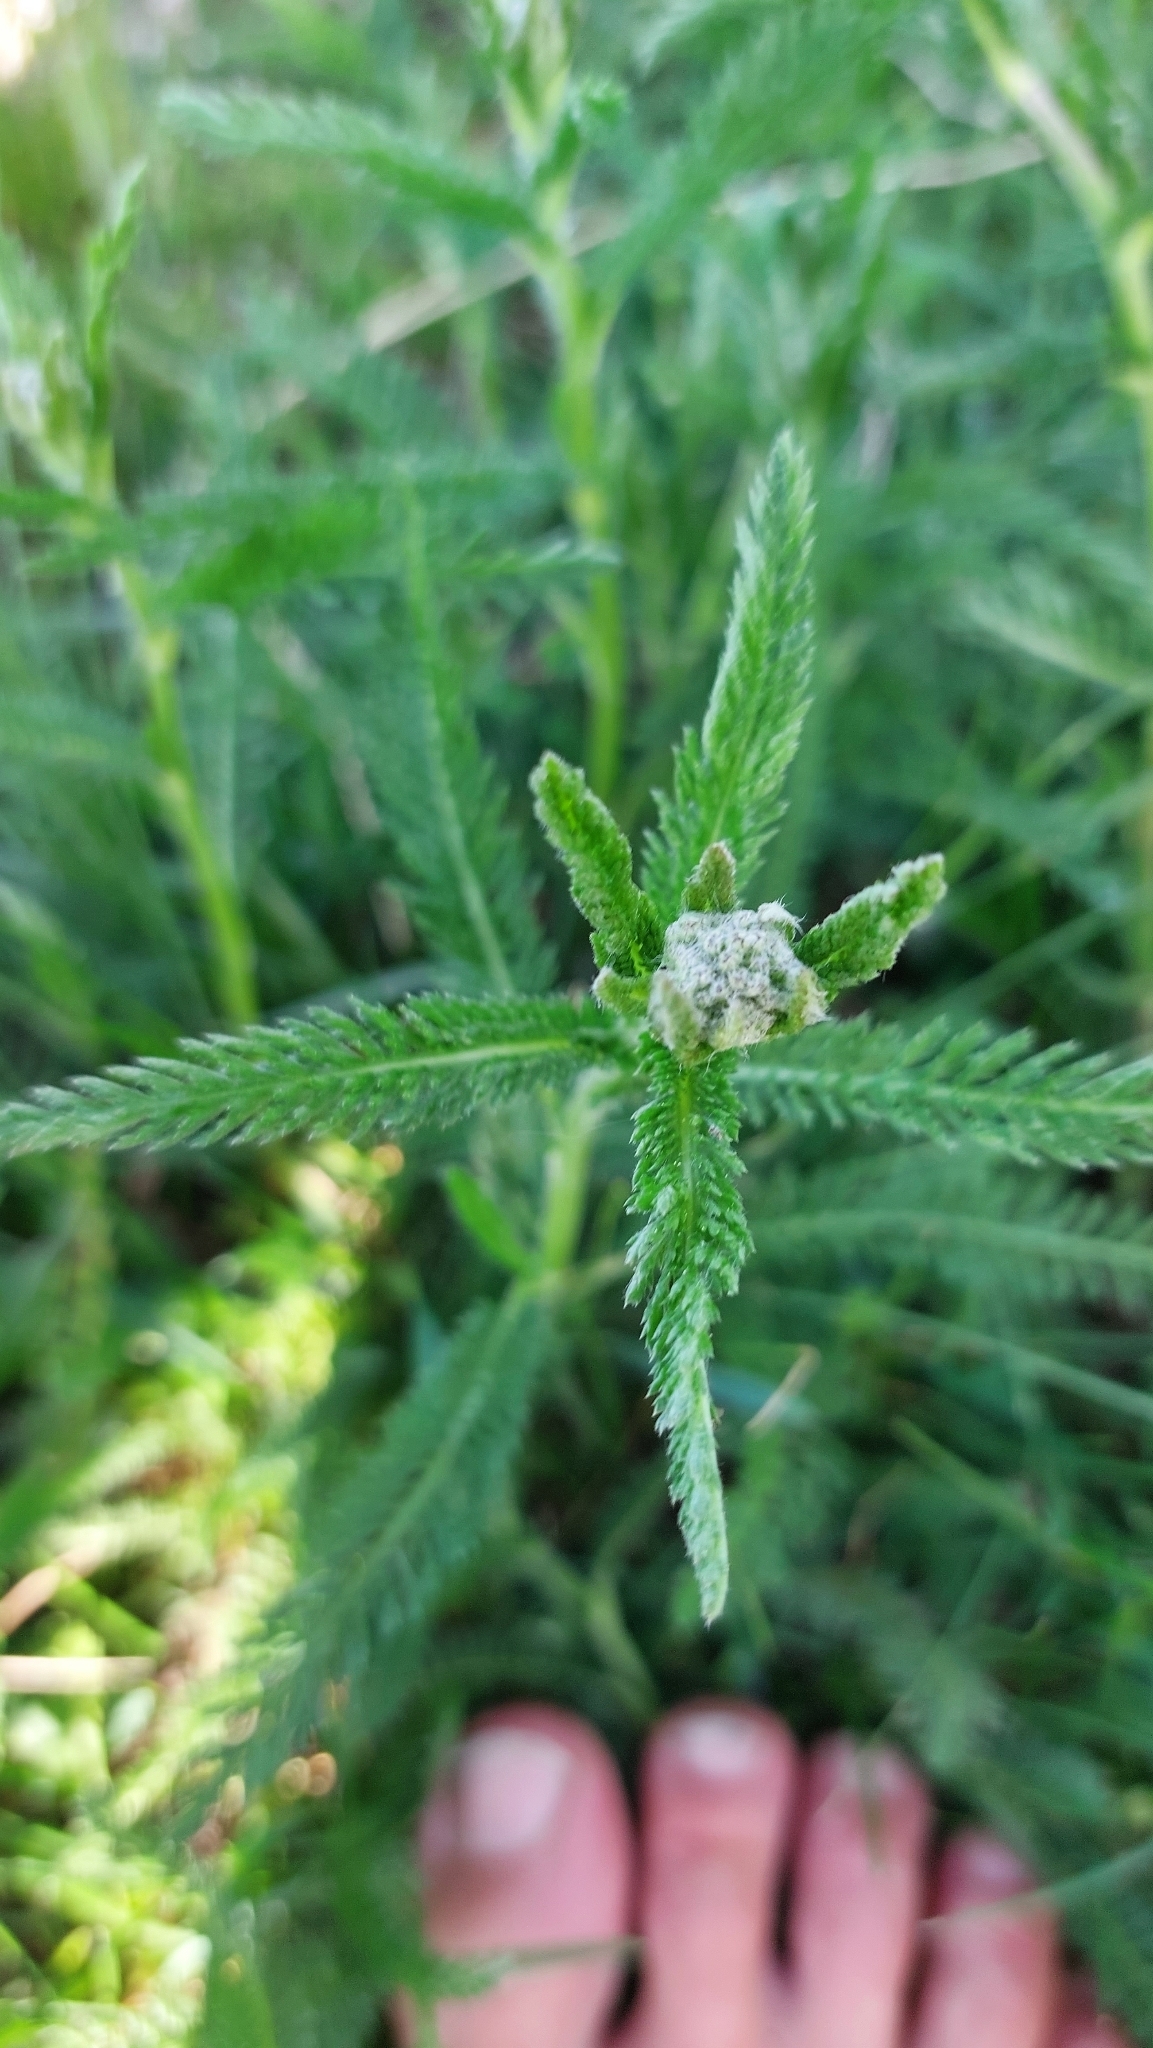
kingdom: Plantae
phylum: Tracheophyta
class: Magnoliopsida
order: Asterales
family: Asteraceae
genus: Achillea
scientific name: Achillea millefolium
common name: Yarrow
